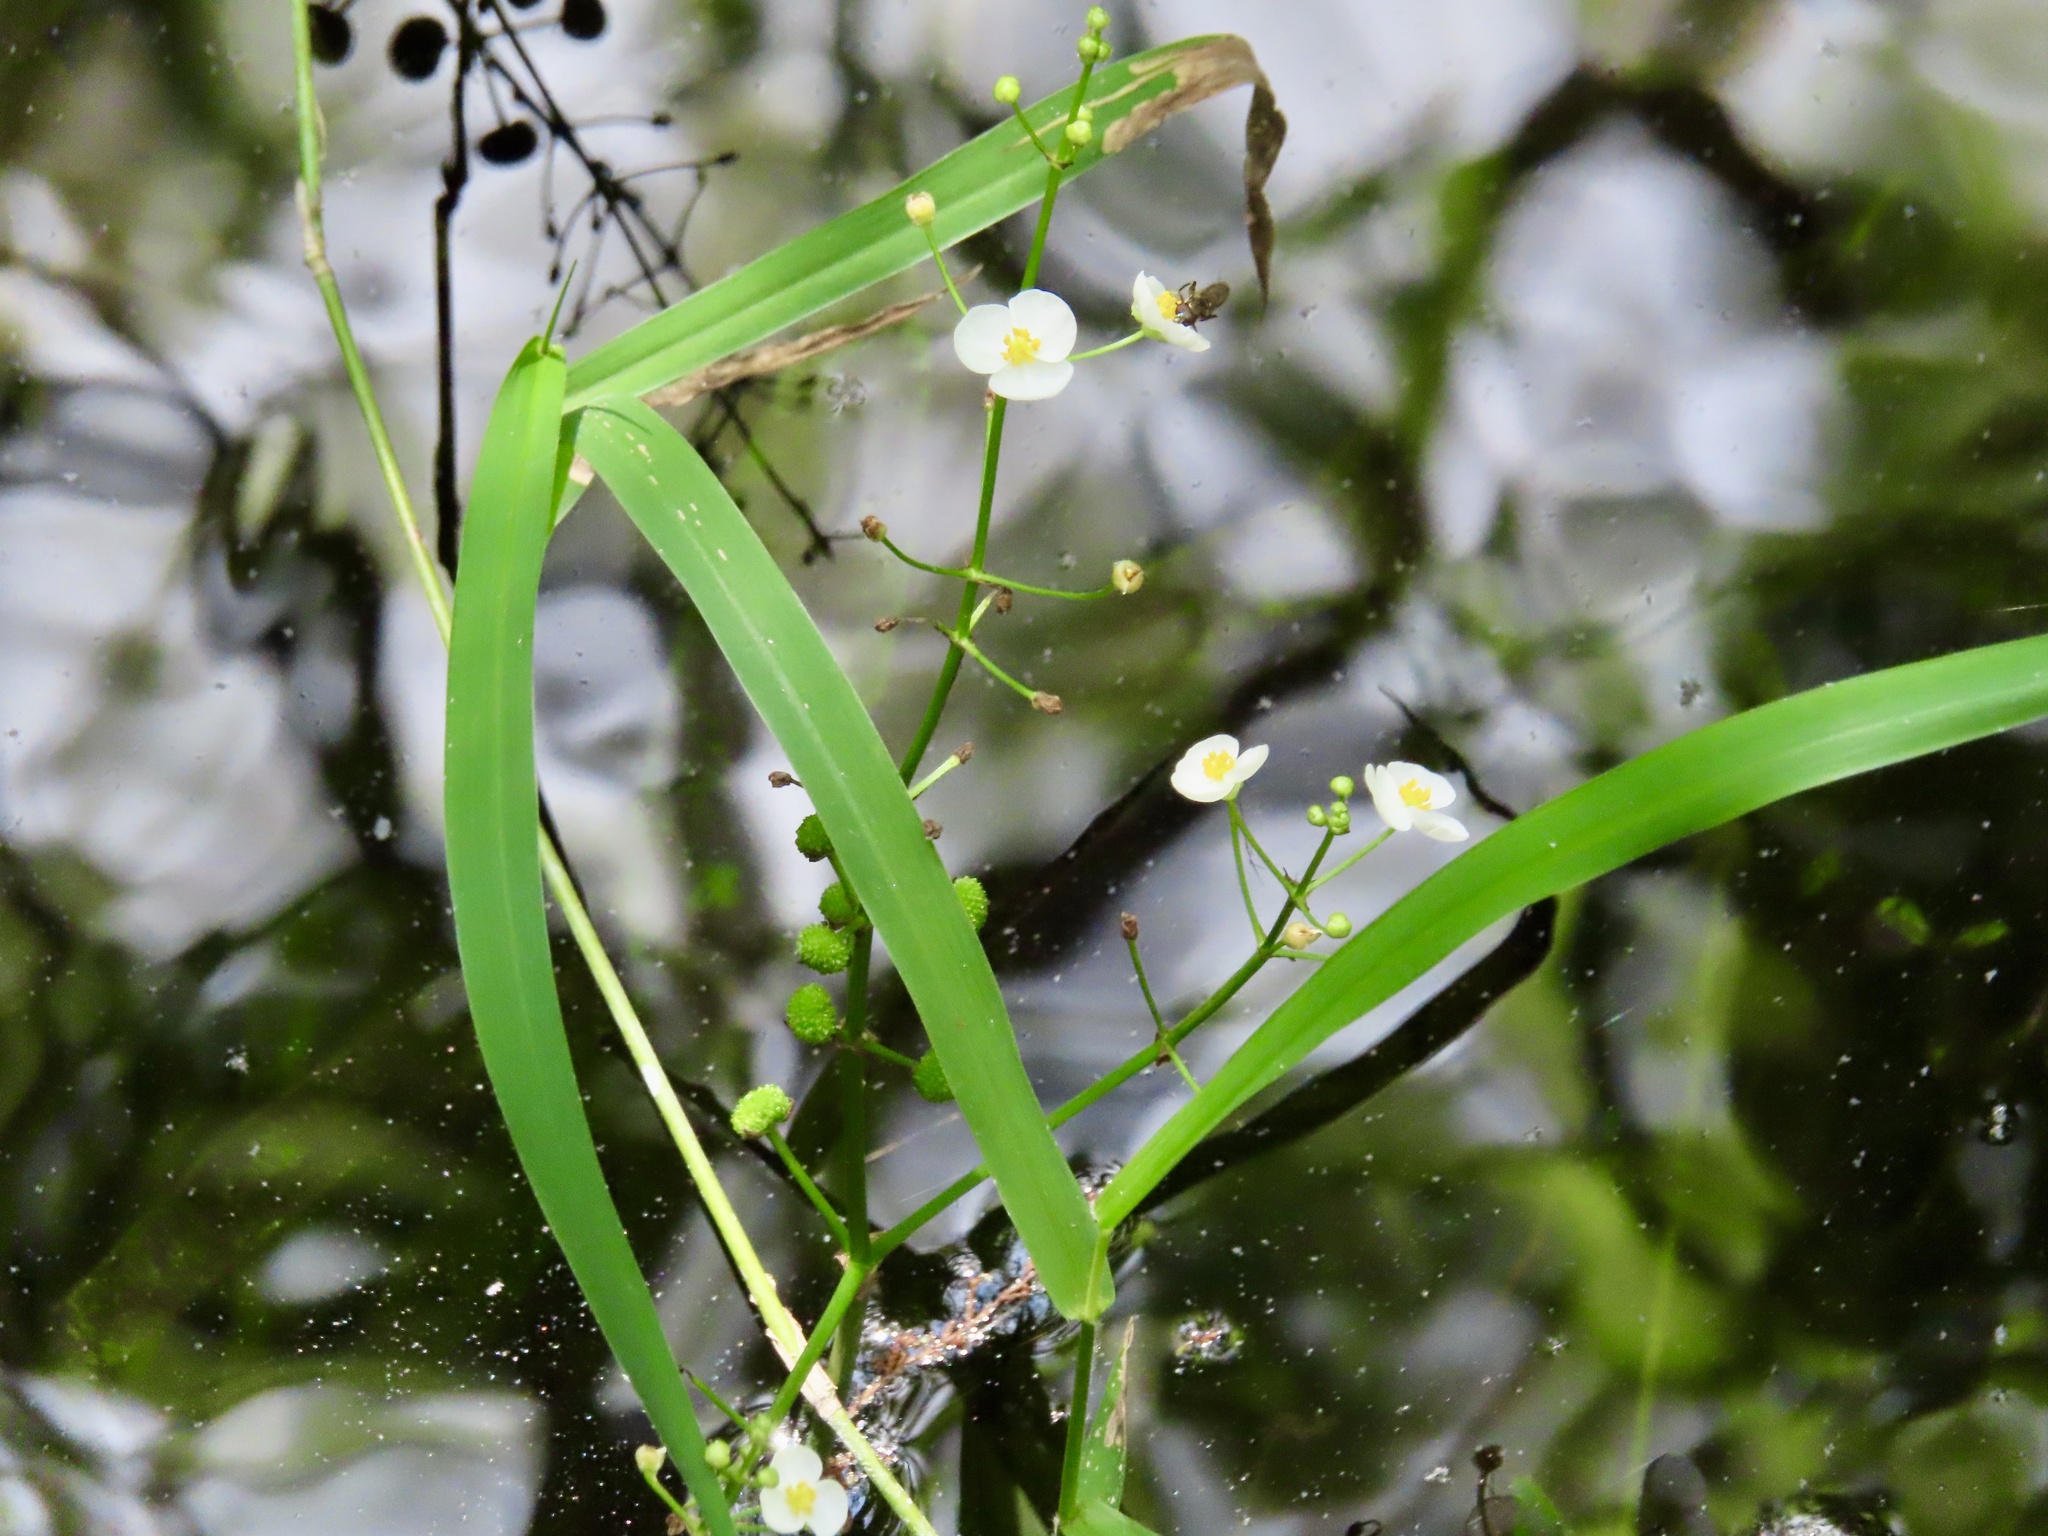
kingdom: Plantae
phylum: Tracheophyta
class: Liliopsida
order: Alismatales
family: Alismataceae
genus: Sagittaria
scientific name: Sagittaria chapmanii
